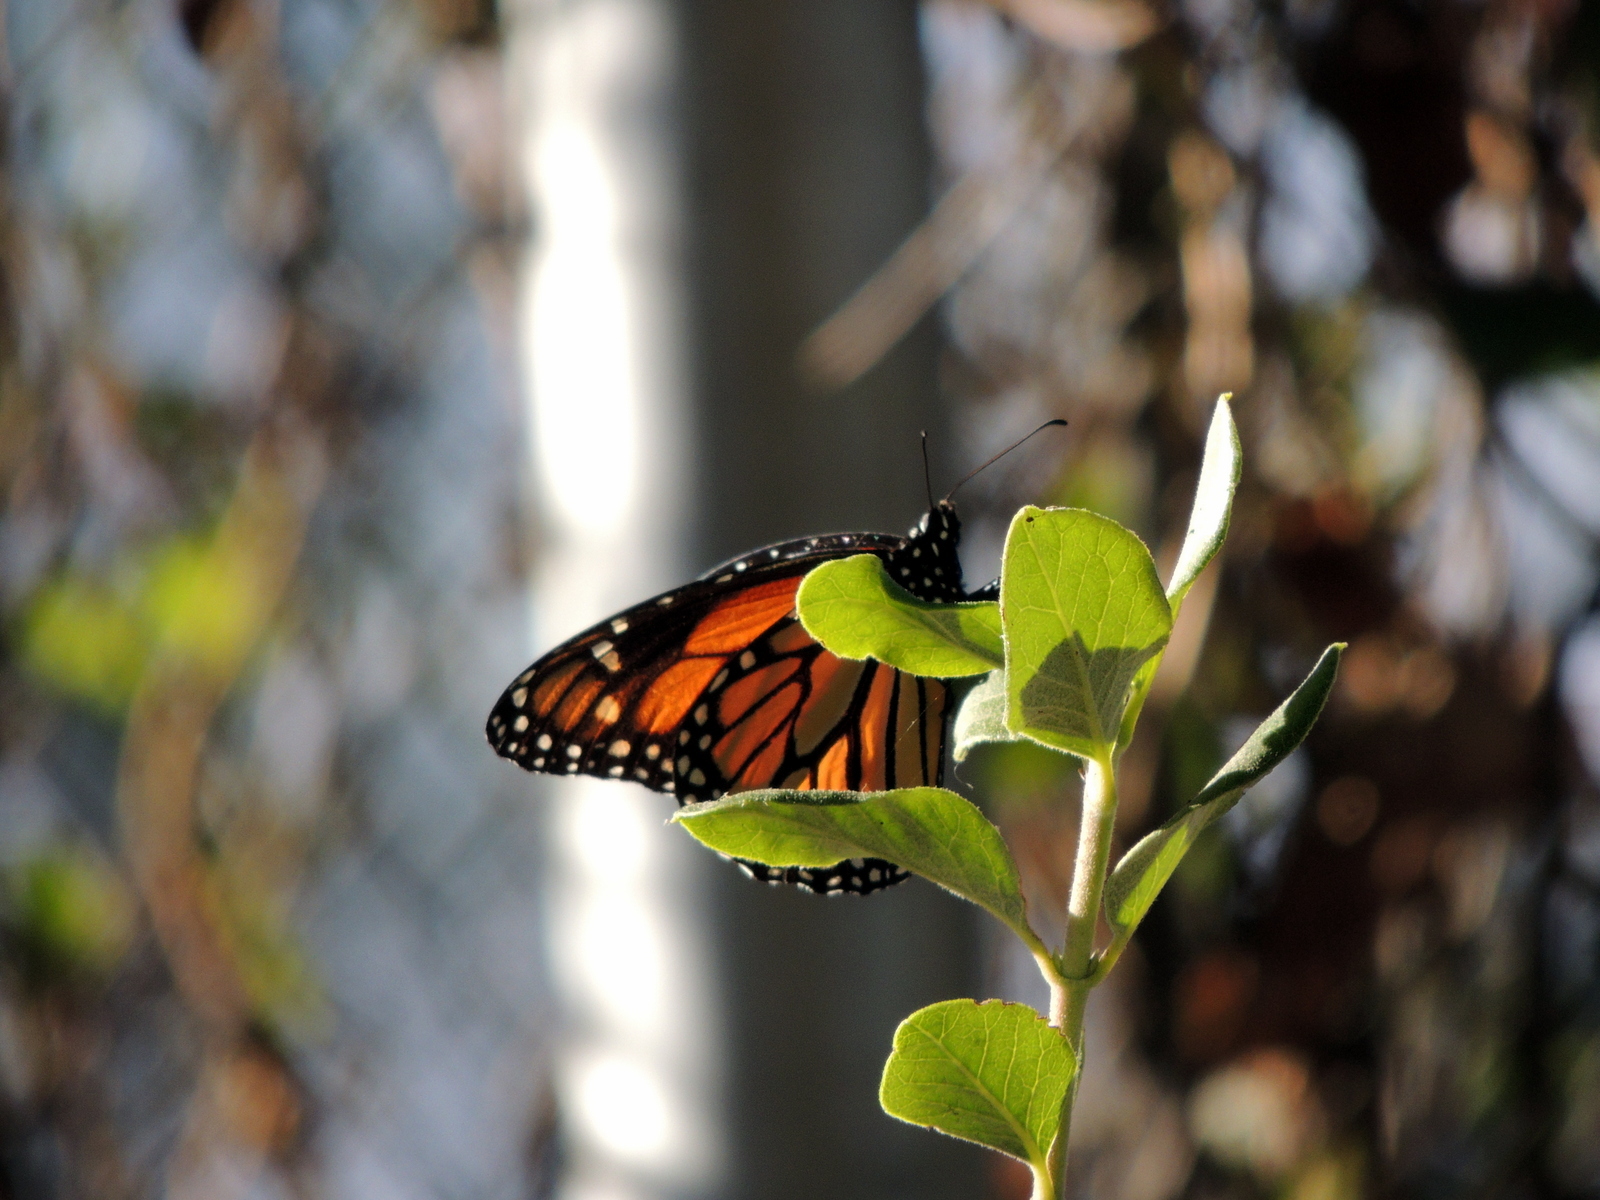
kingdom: Animalia
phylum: Arthropoda
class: Insecta
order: Lepidoptera
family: Nymphalidae
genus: Danaus
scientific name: Danaus plexippus
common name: Monarch
